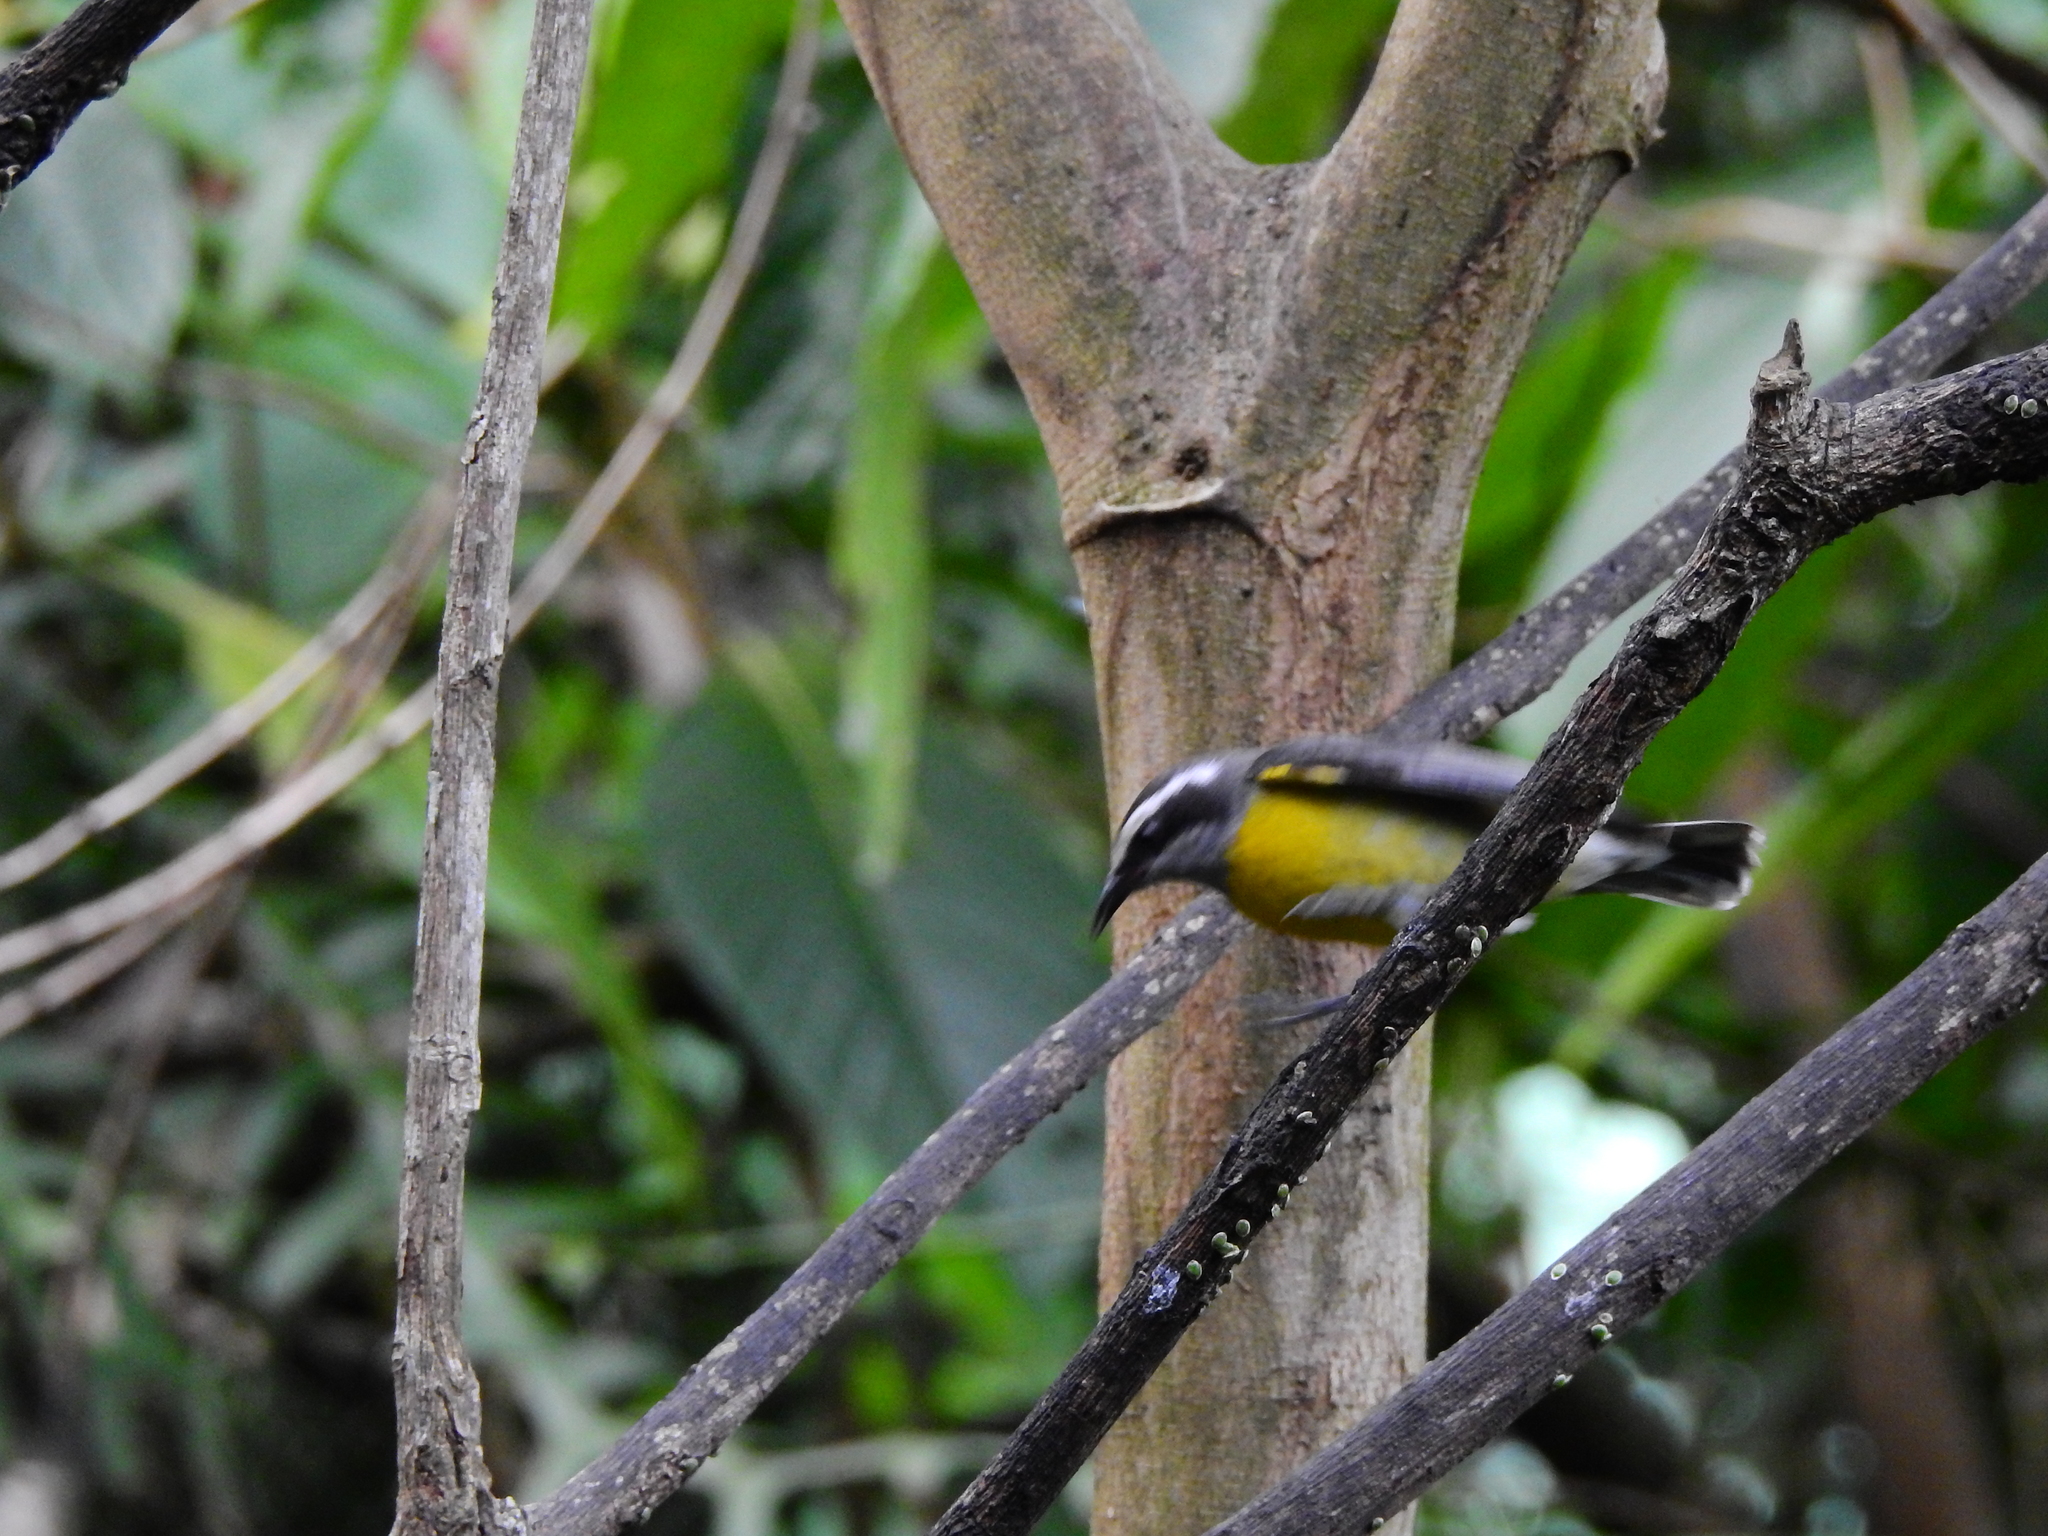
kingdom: Animalia
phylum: Chordata
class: Aves
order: Passeriformes
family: Thraupidae
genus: Coereba
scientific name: Coereba flaveola
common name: Bananaquit
